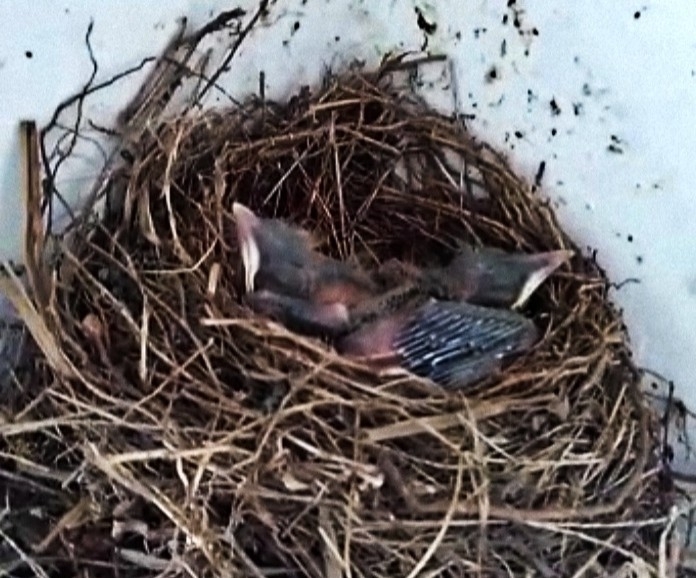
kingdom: Animalia
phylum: Chordata
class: Aves
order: Passeriformes
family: Turdidae
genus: Turdus
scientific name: Turdus grayi
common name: Clay-colored thrush
